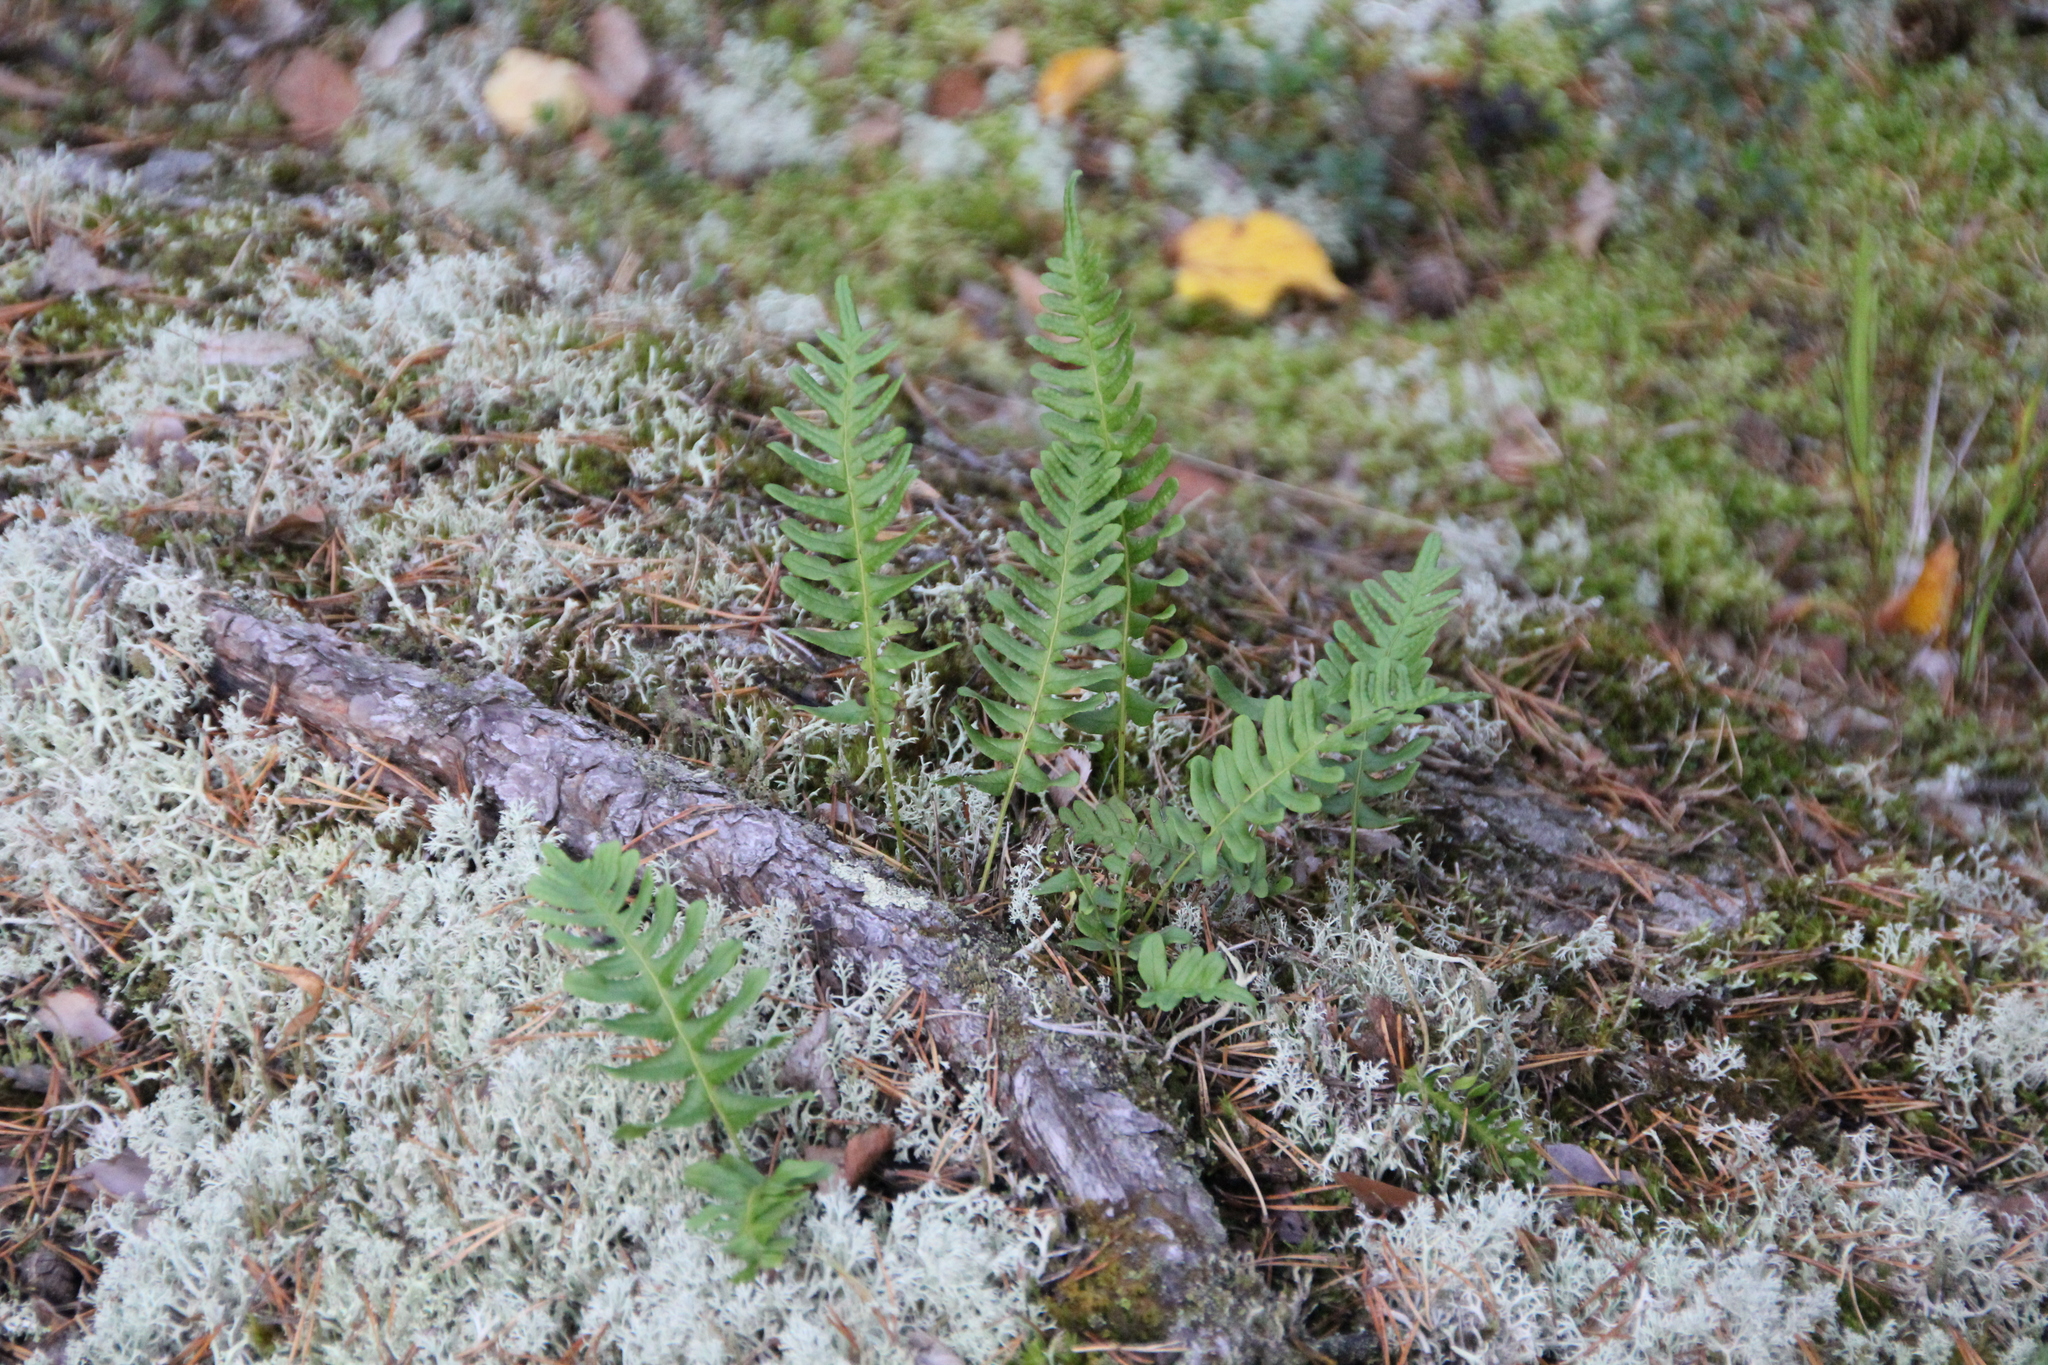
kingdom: Plantae
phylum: Tracheophyta
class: Polypodiopsida
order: Polypodiales
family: Polypodiaceae
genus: Polypodium
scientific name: Polypodium vulgare
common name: Common polypody
